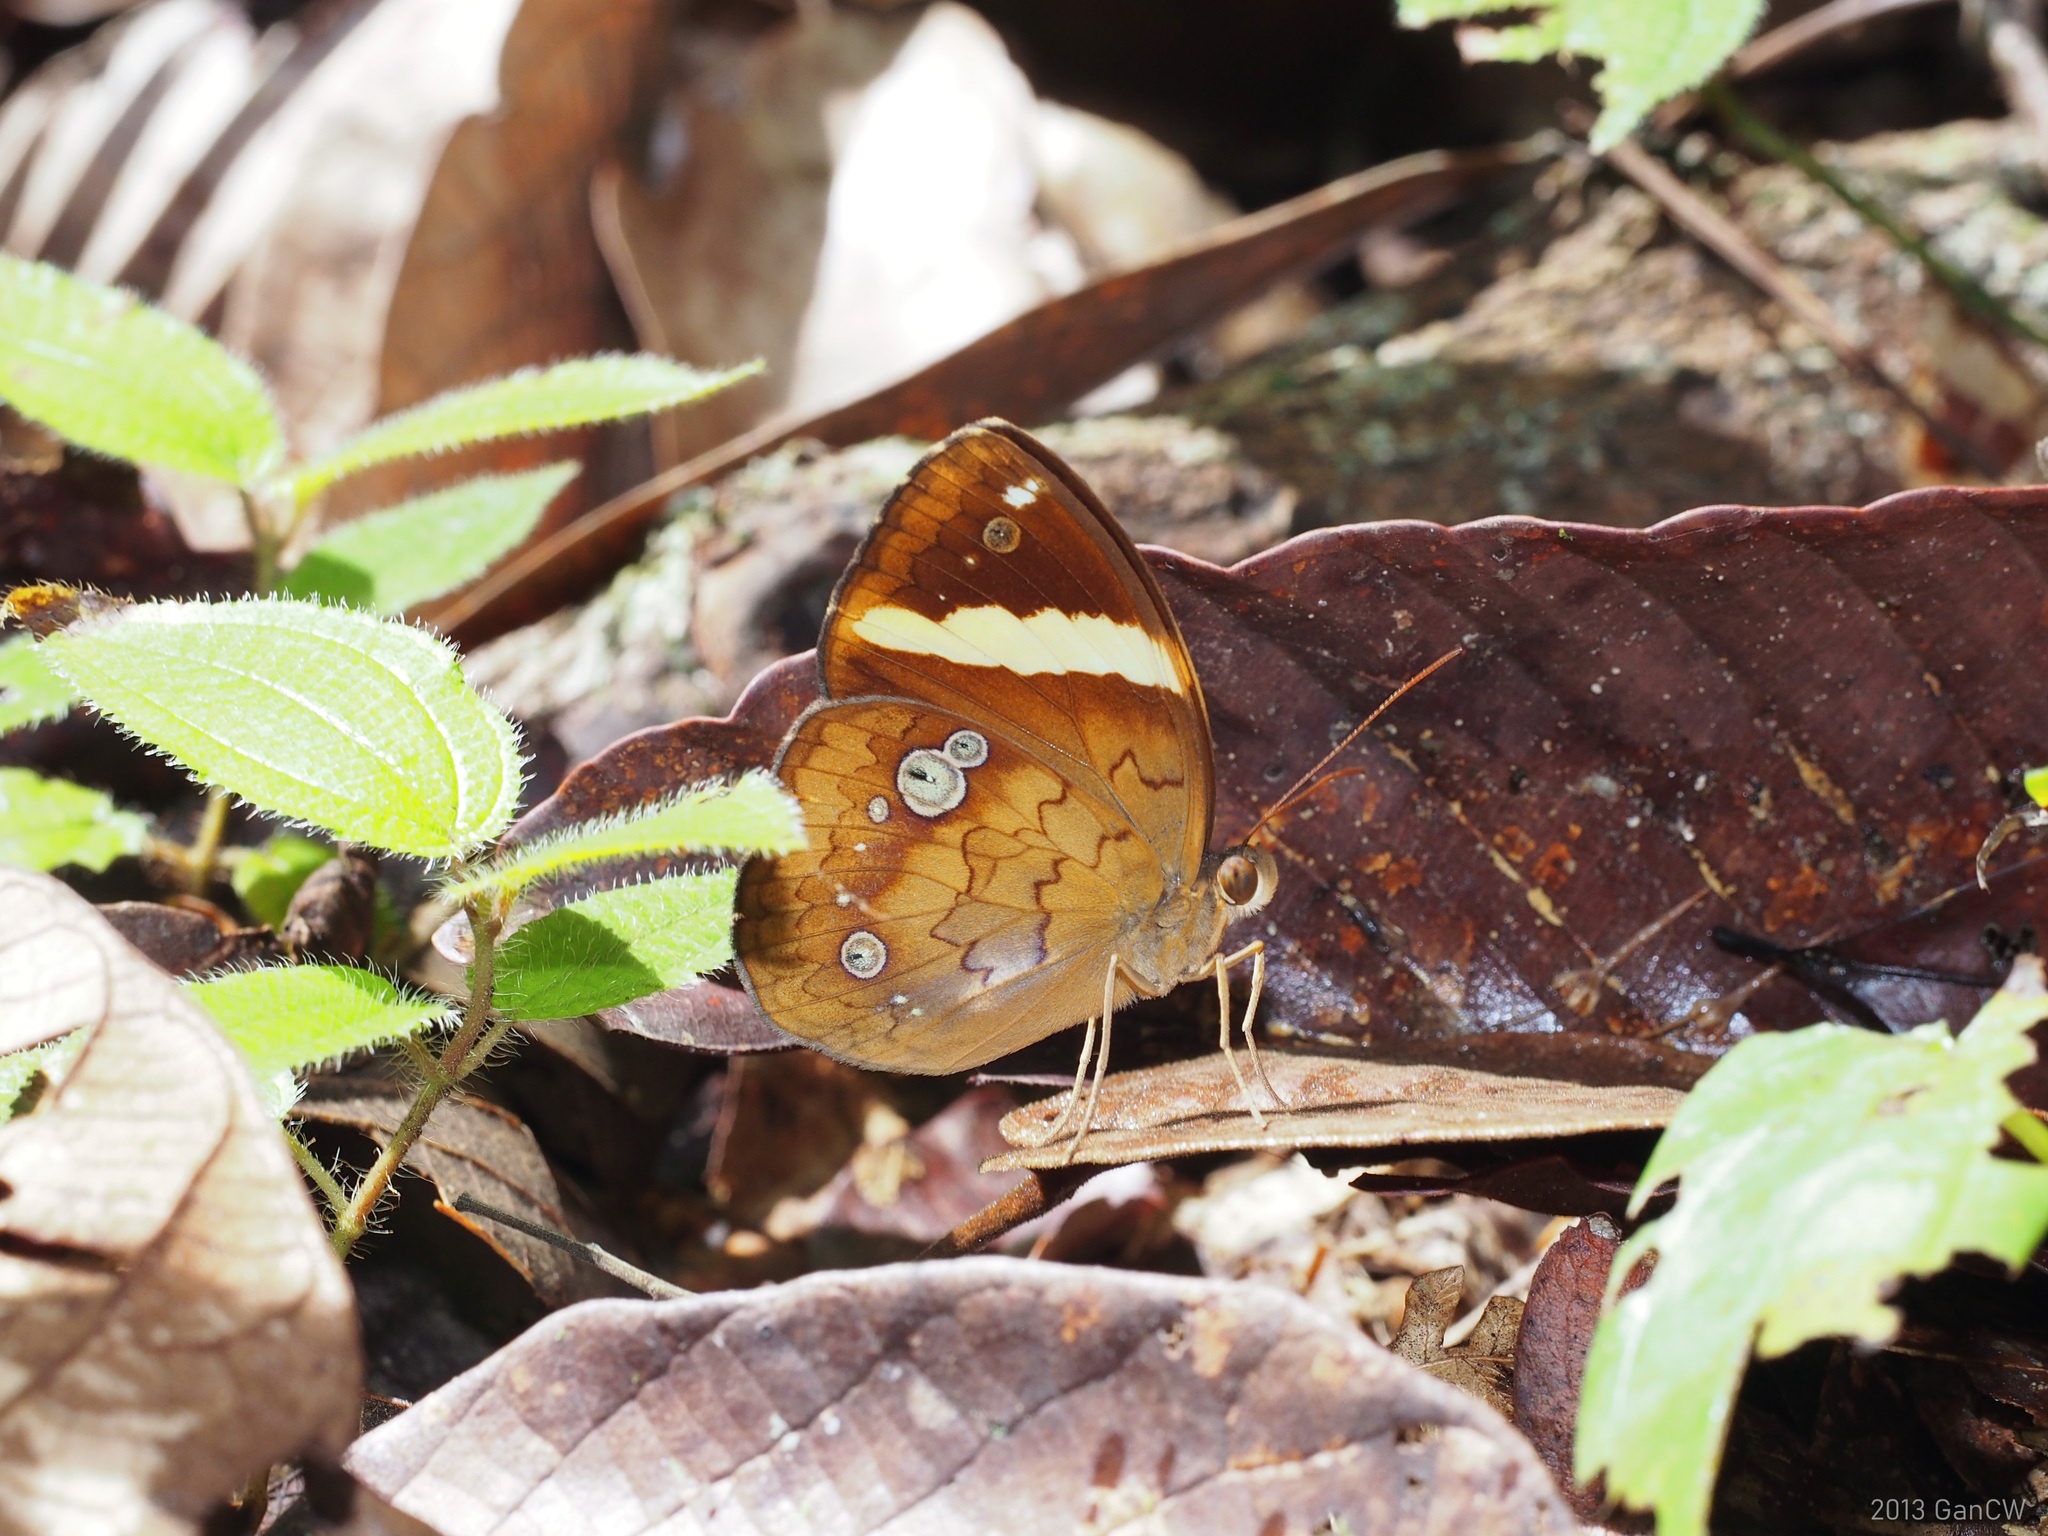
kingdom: Animalia
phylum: Arthropoda
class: Insecta
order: Lepidoptera
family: Nymphalidae
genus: Xanthotaenia
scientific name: Xanthotaenia busiris
